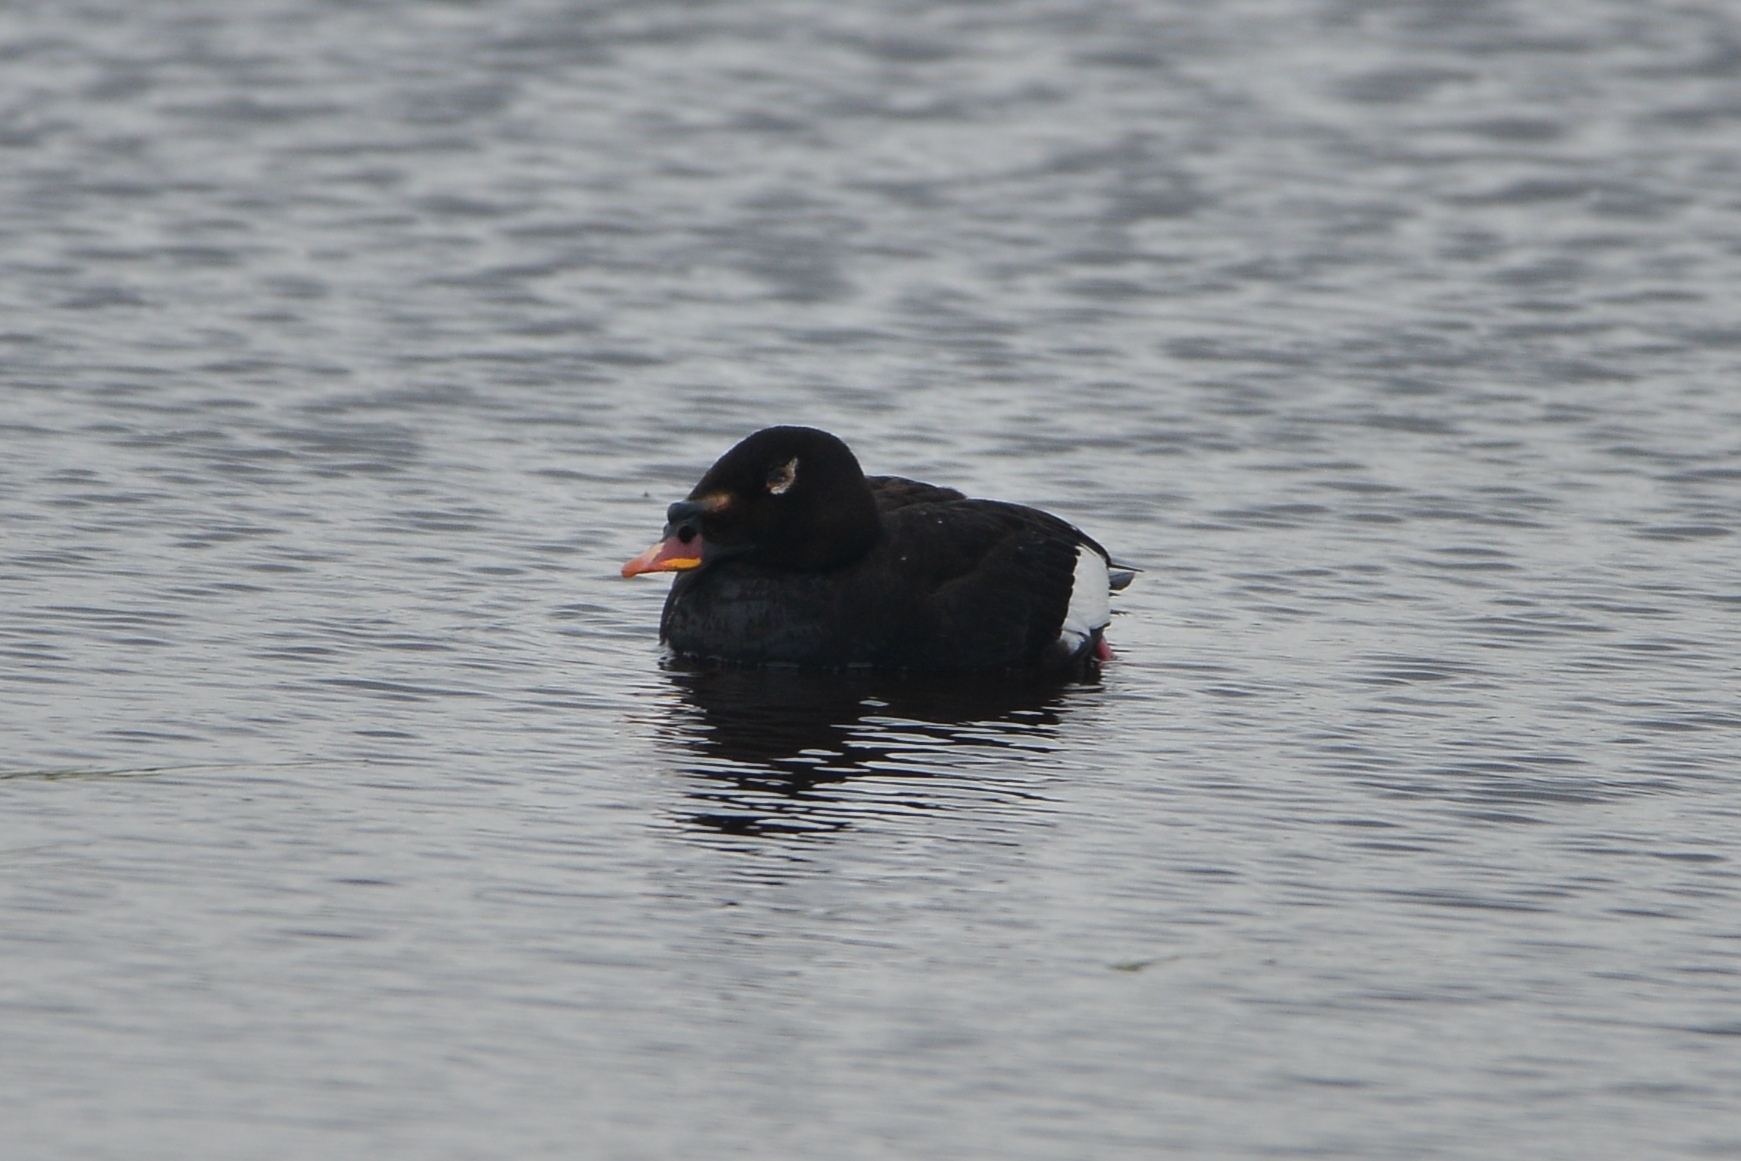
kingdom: Animalia
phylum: Chordata
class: Aves
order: Anseriformes
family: Anatidae
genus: Melanitta
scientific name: Melanitta stejnegeri
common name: Stejneger's scoter
